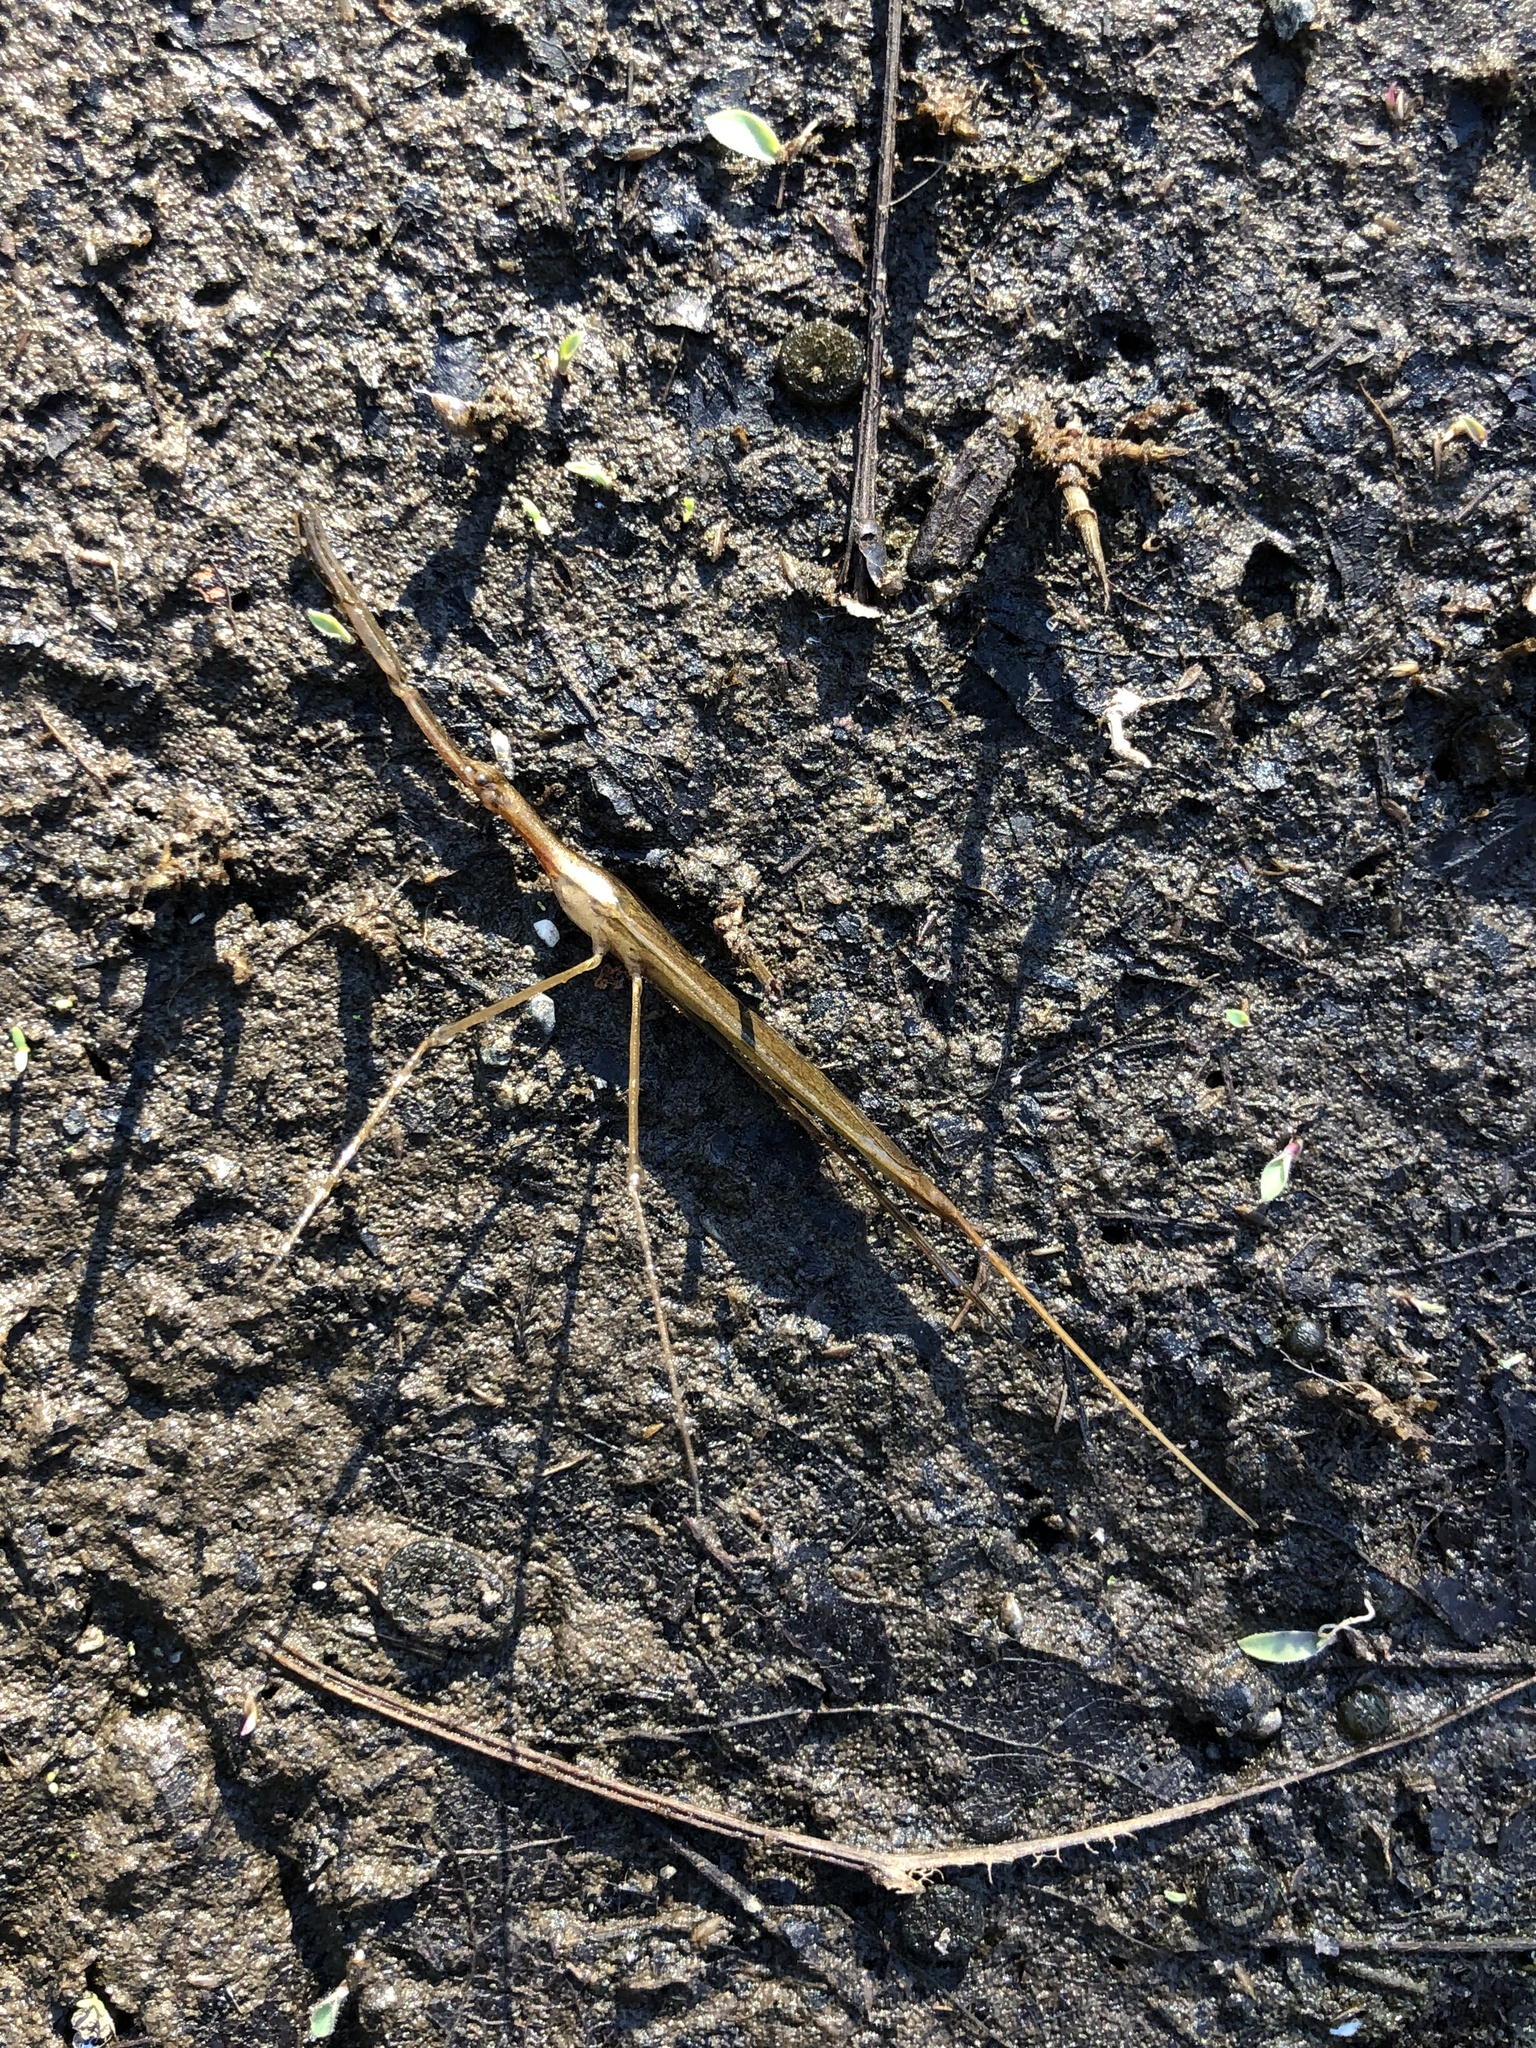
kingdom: Animalia
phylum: Arthropoda
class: Insecta
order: Hemiptera
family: Nepidae
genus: Ranatra
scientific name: Ranatra fusca
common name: Brown waterscorpion
